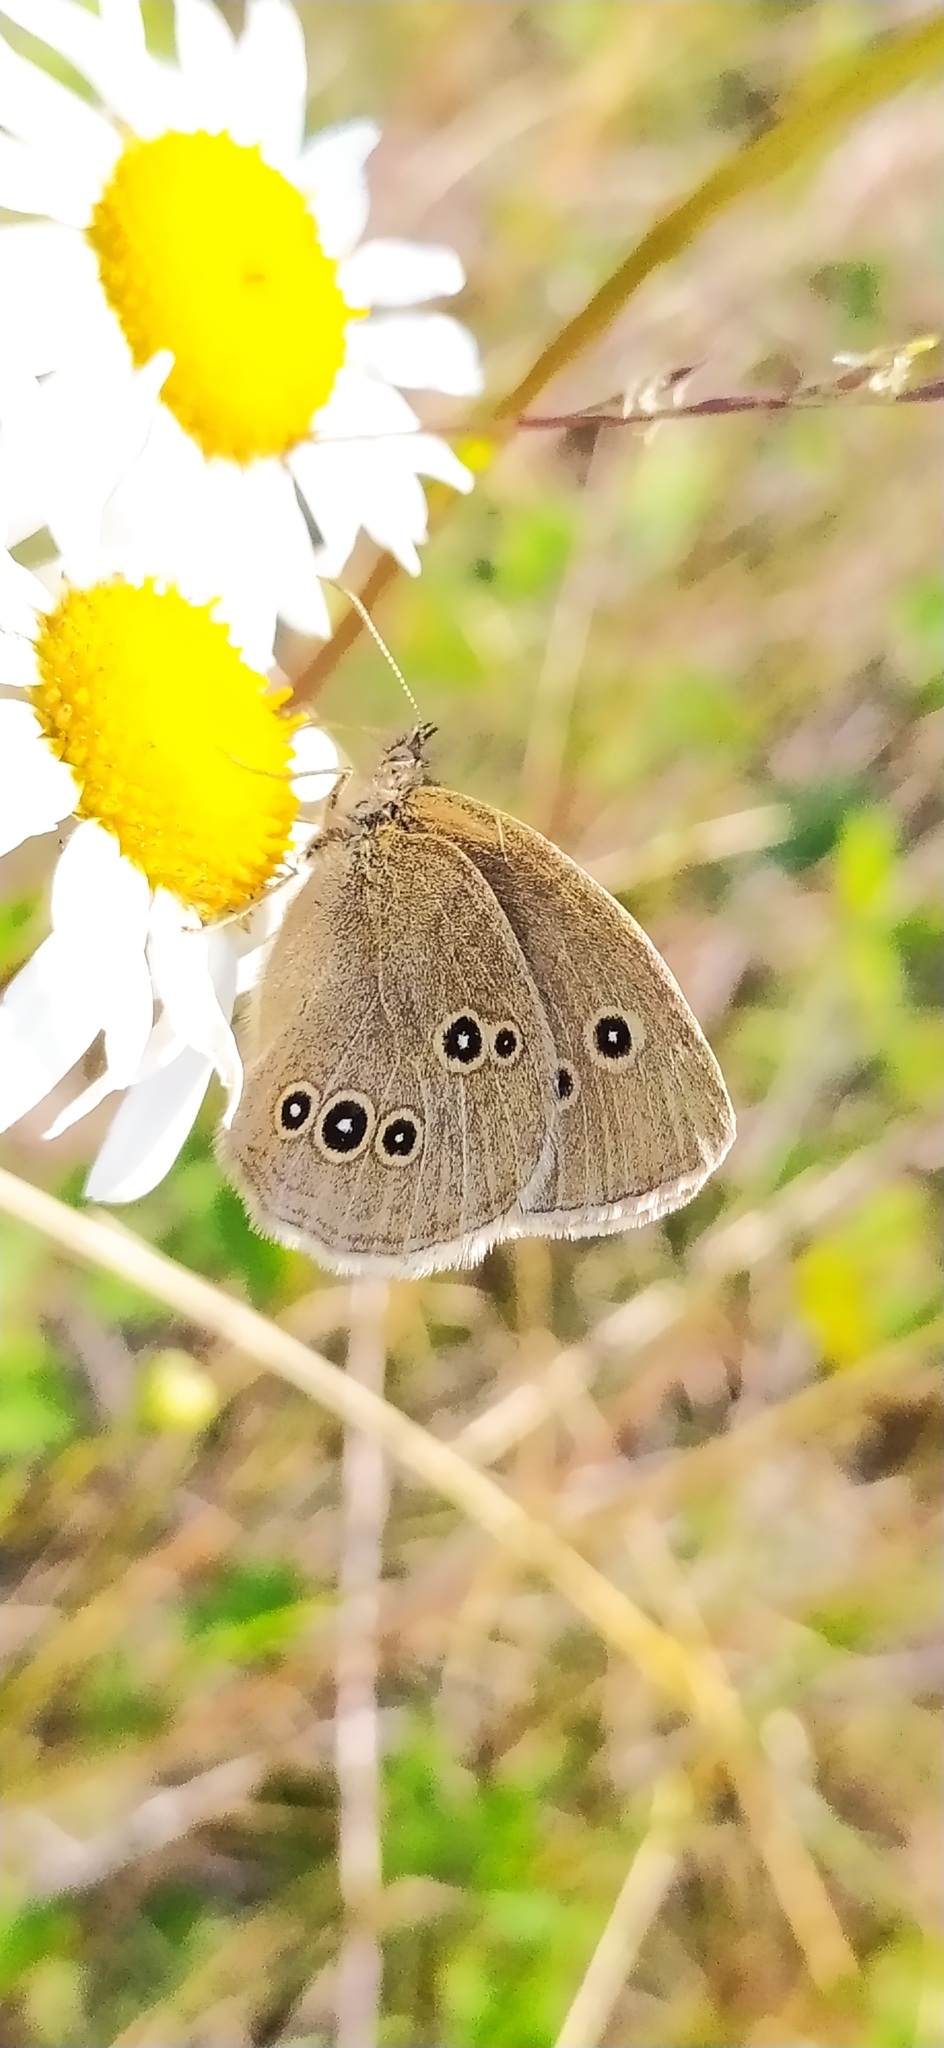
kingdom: Animalia
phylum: Arthropoda
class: Insecta
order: Lepidoptera
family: Nymphalidae
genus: Aphantopus
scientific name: Aphantopus hyperantus
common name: Ringlet
